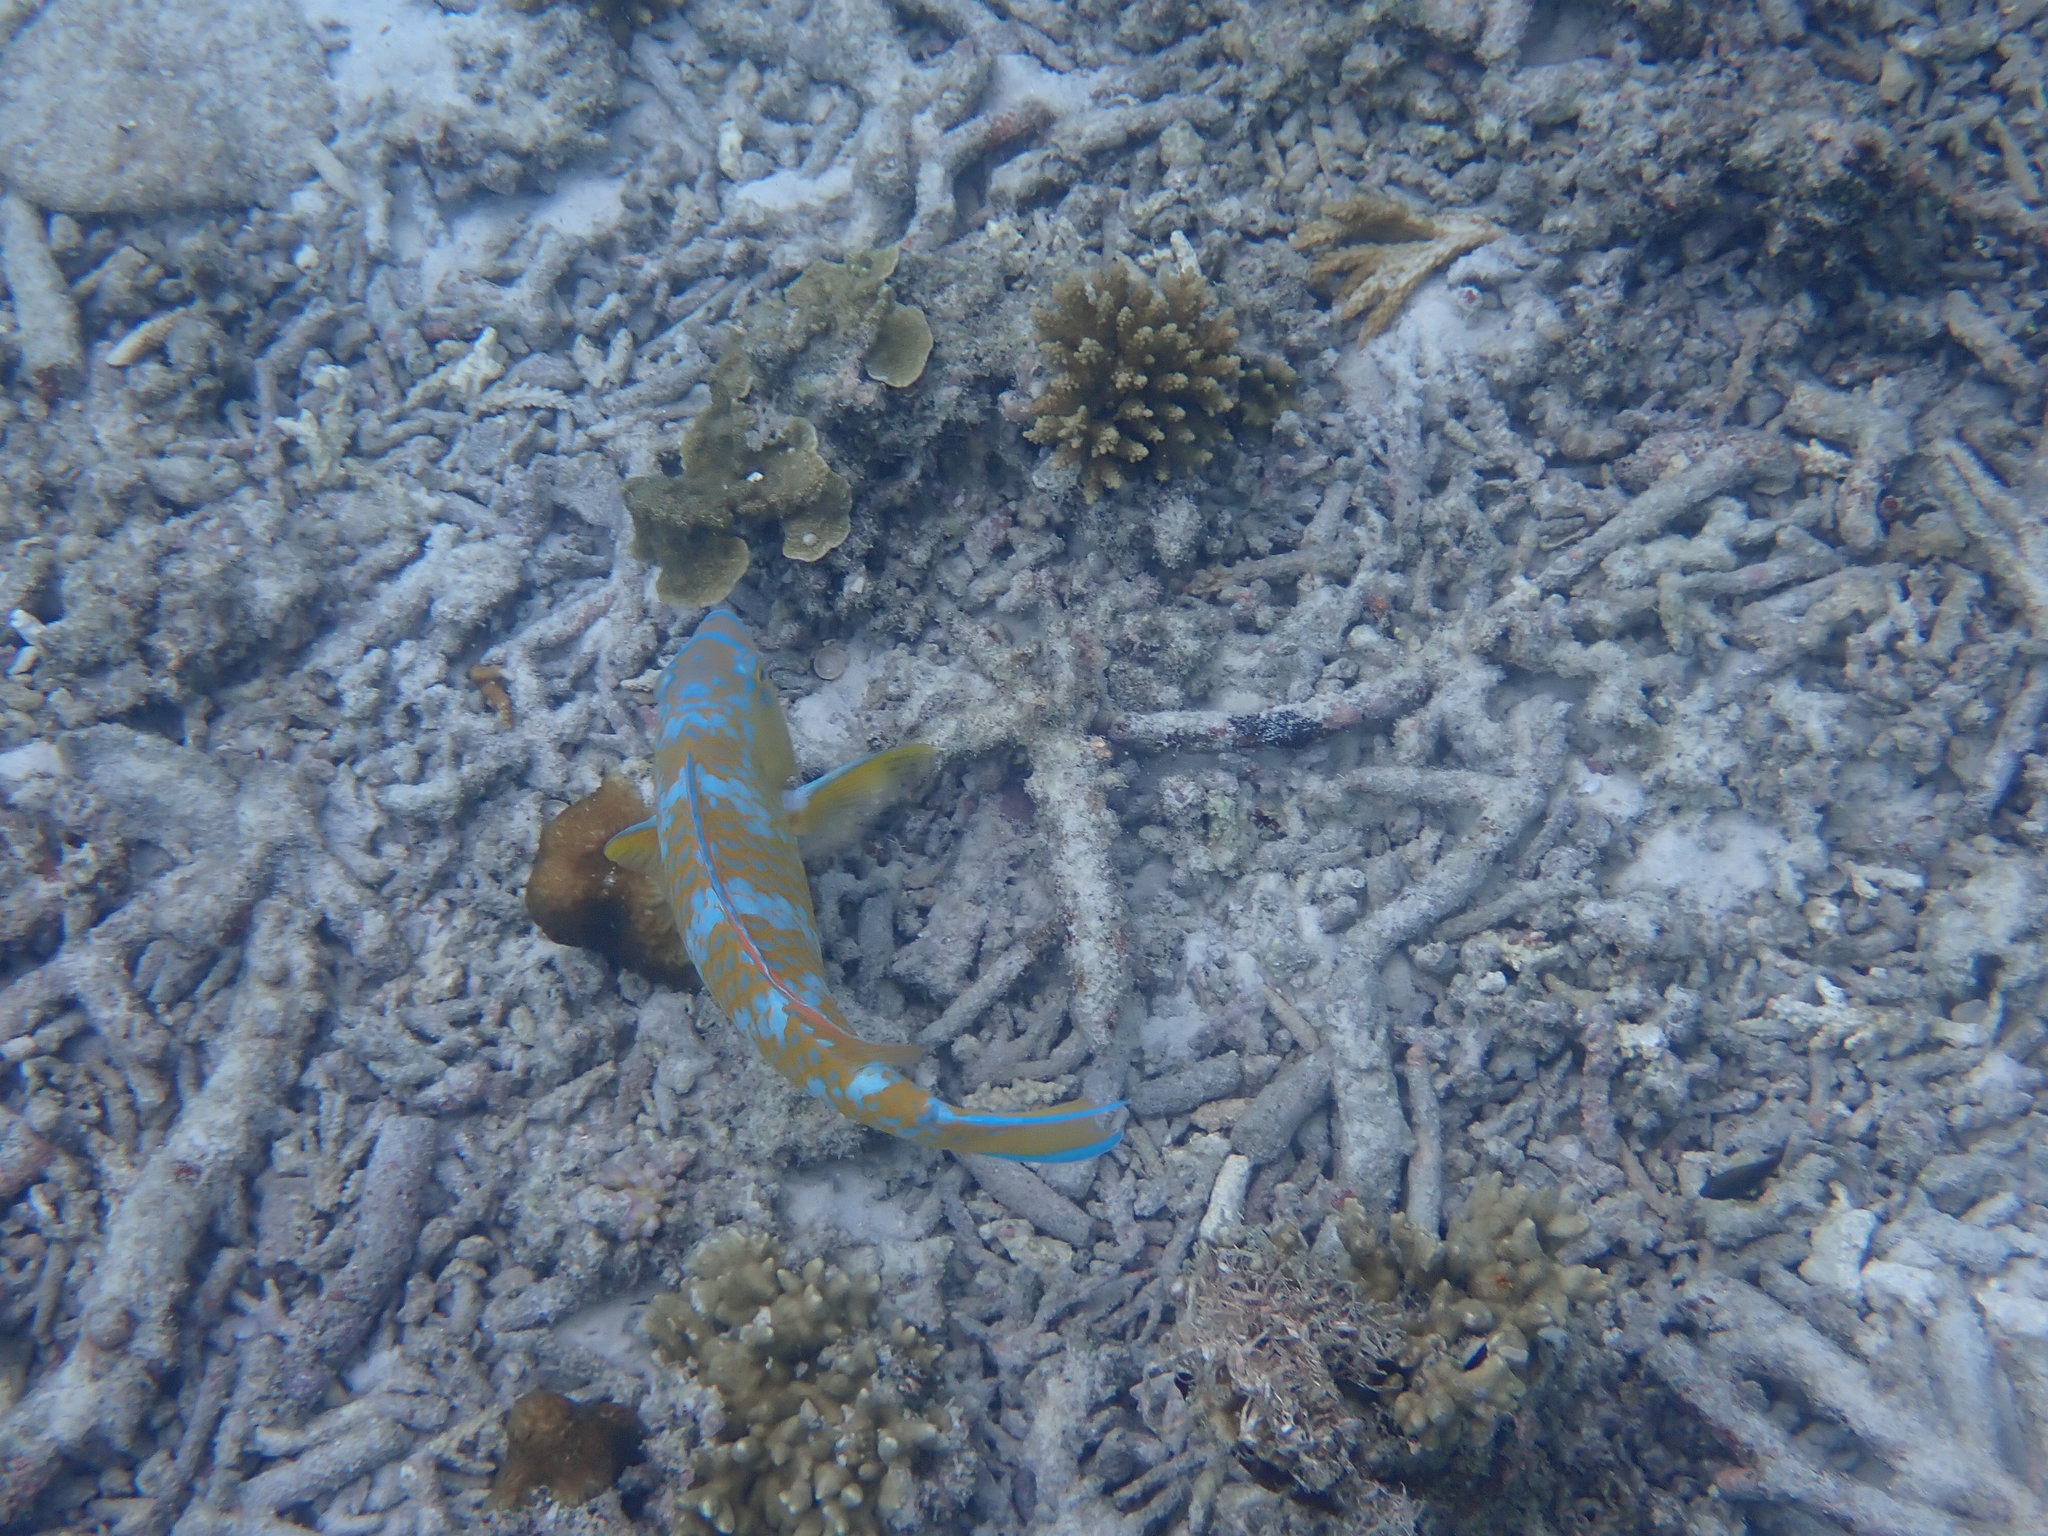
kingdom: Animalia
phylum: Chordata
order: Perciformes
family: Scaridae
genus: Scarus
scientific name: Scarus ghobban
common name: Blue-barred parrotfish
